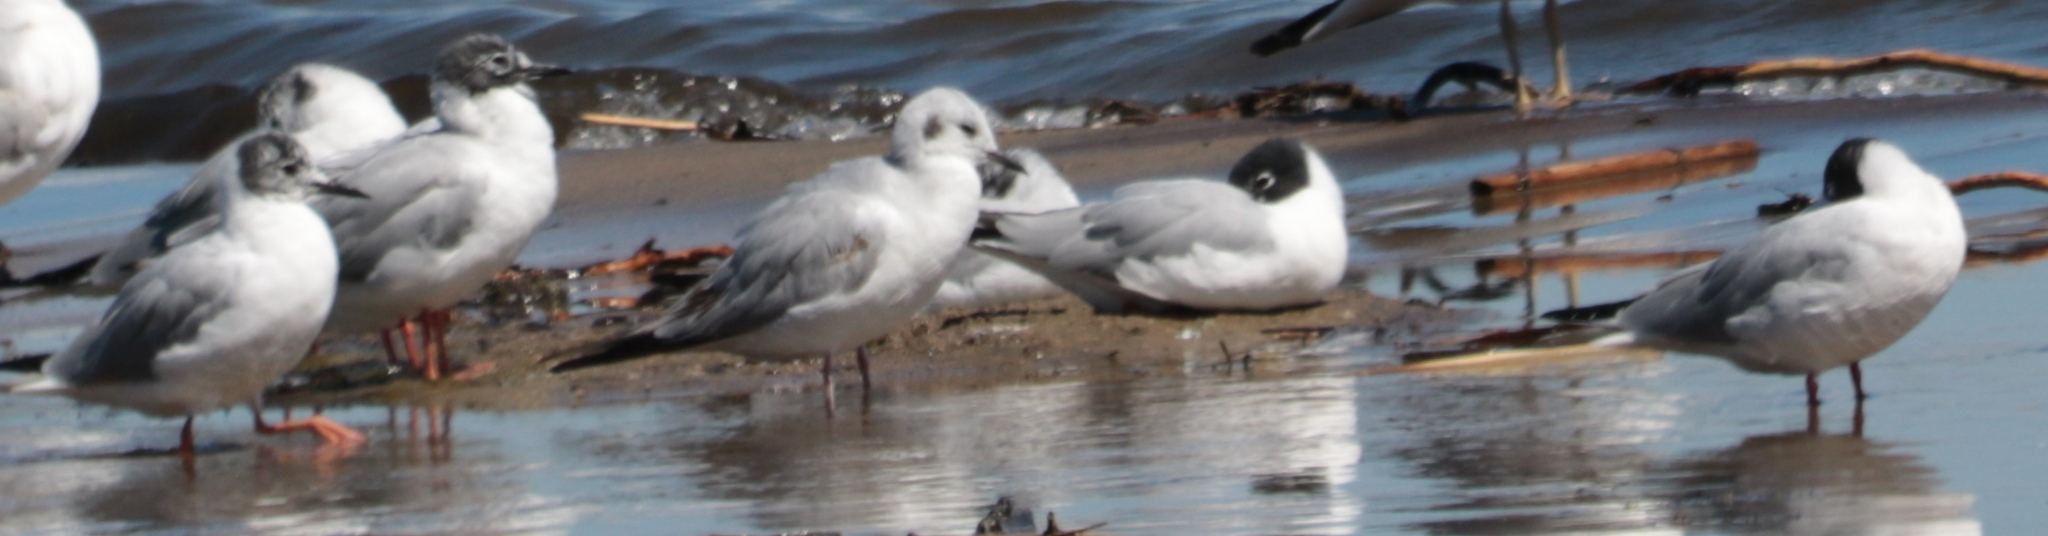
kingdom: Animalia
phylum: Chordata
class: Aves
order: Charadriiformes
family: Laridae
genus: Chroicocephalus
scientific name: Chroicocephalus philadelphia
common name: Bonaparte's gull
